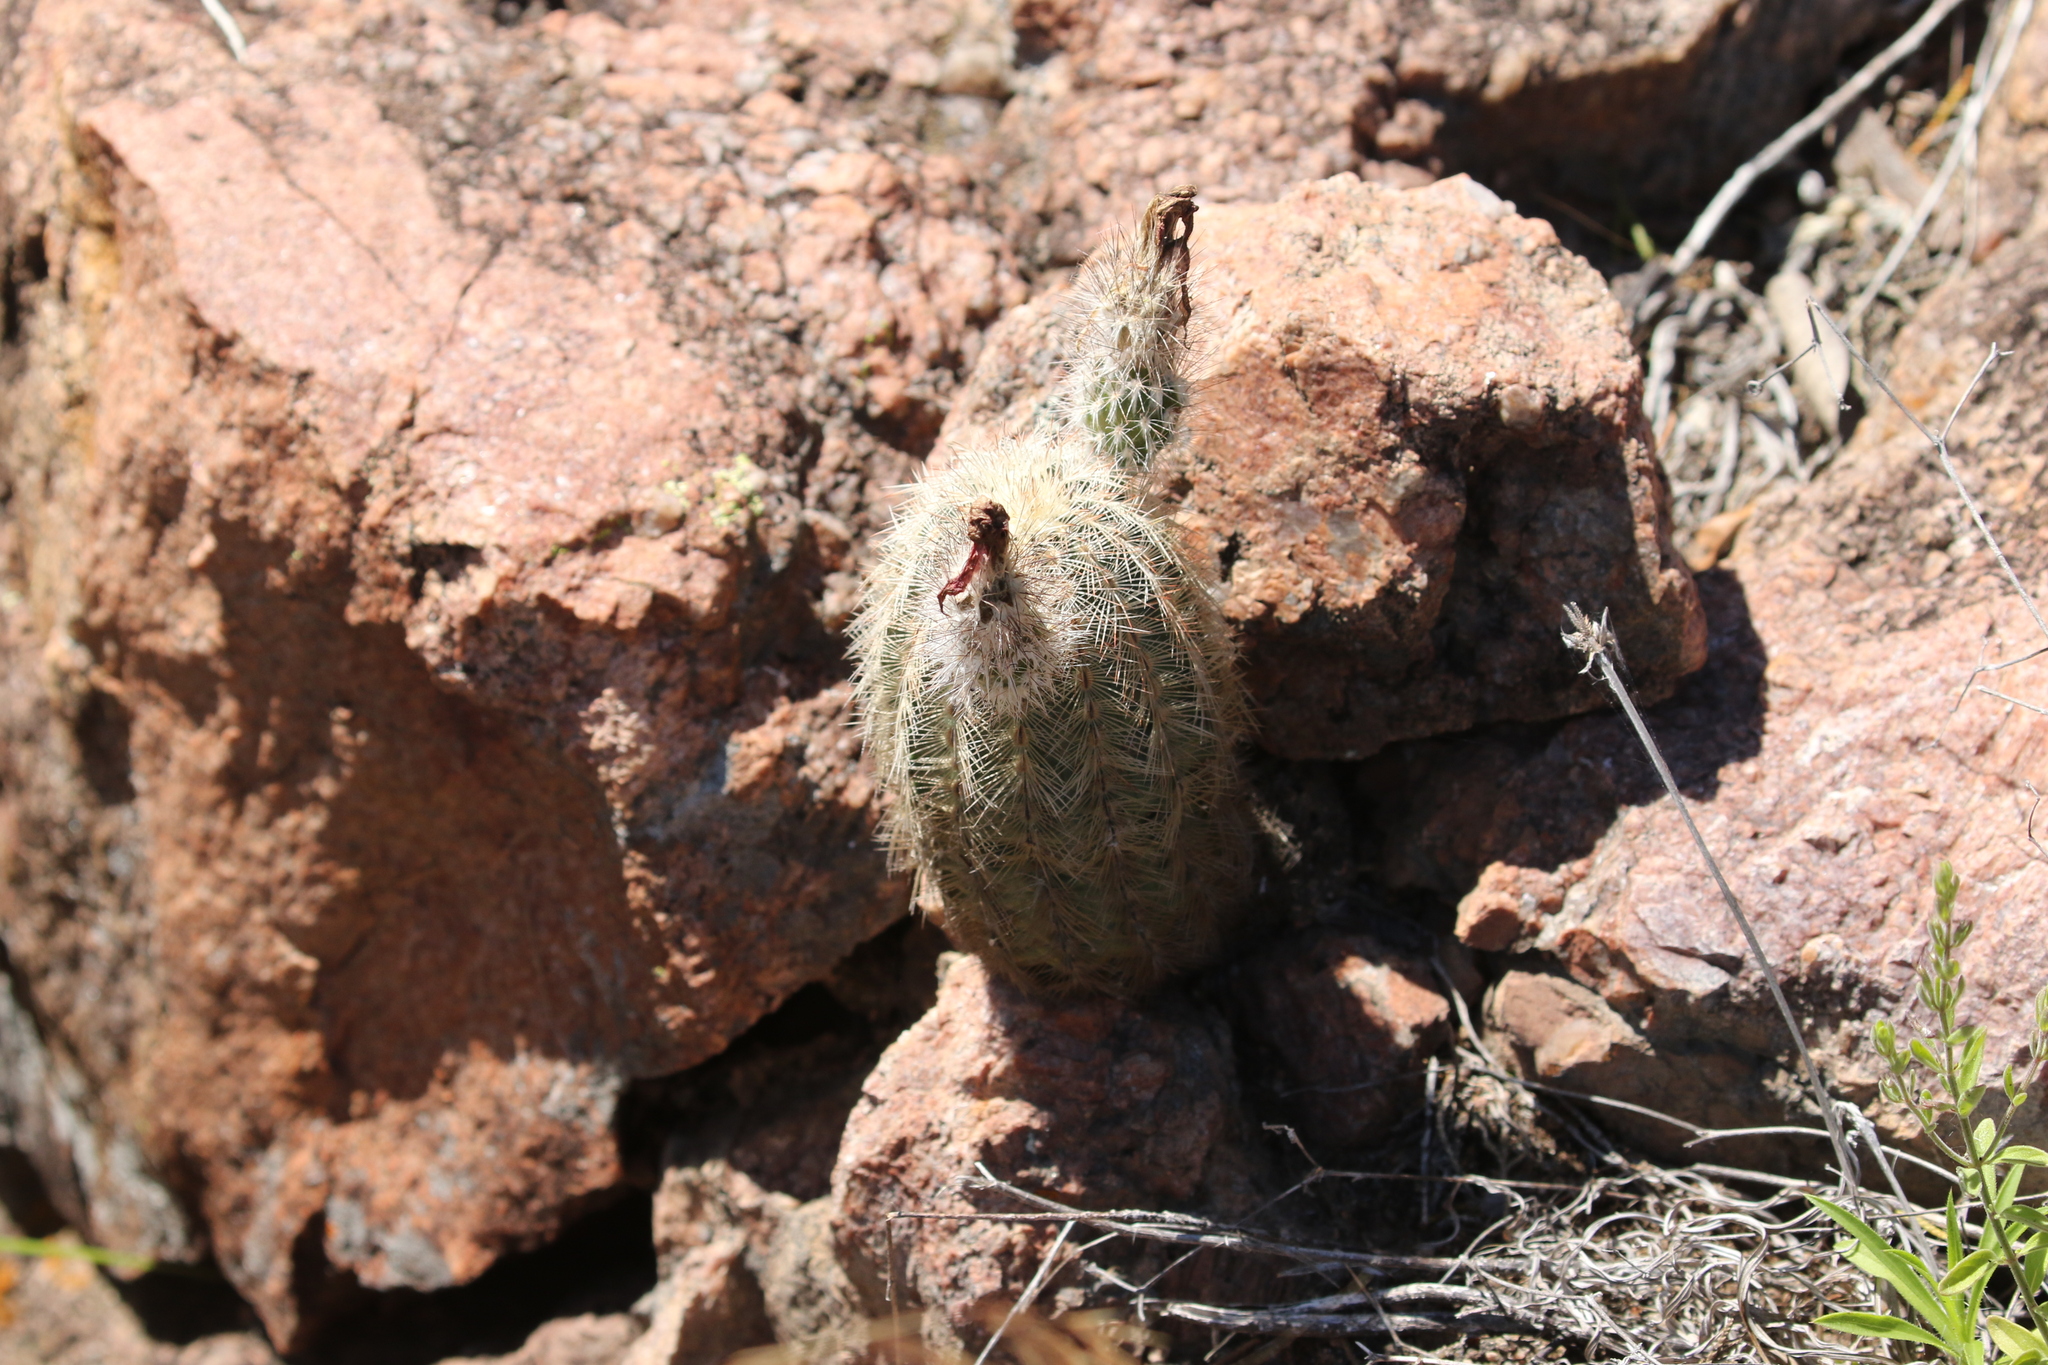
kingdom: Plantae
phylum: Tracheophyta
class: Magnoliopsida
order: Caryophyllales
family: Cactaceae
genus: Echinocereus
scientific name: Echinocereus reichenbachii
